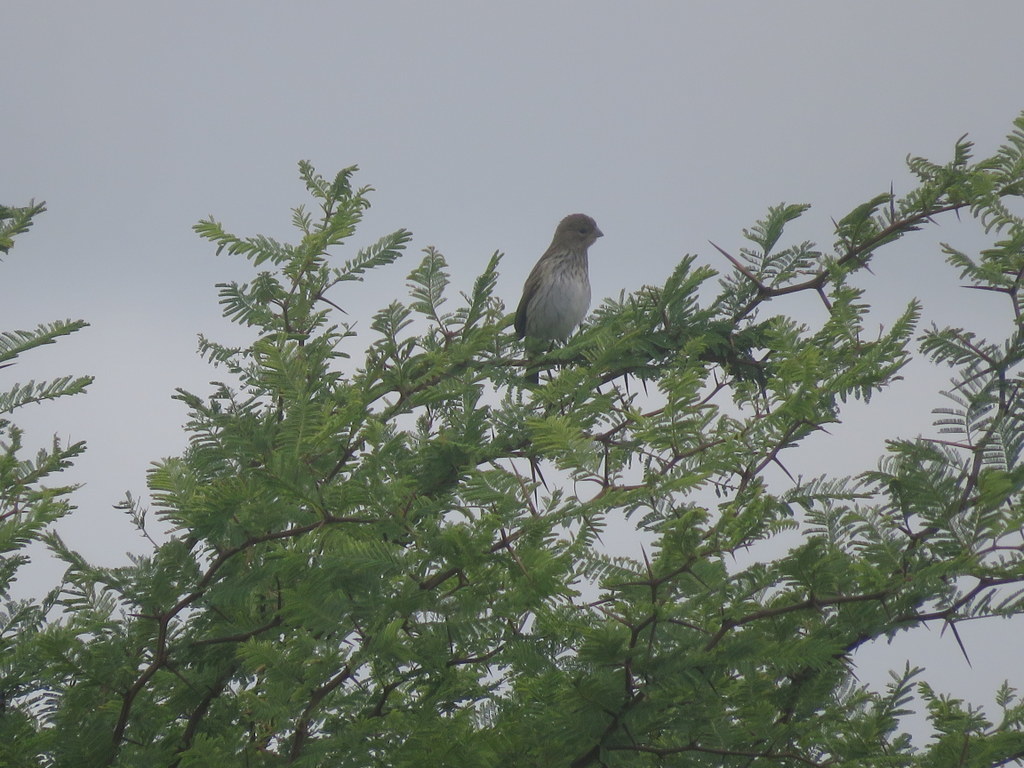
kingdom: Animalia
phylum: Chordata
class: Aves
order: Passeriformes
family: Thraupidae
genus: Sicalis
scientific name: Sicalis flaveola
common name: Saffron finch
